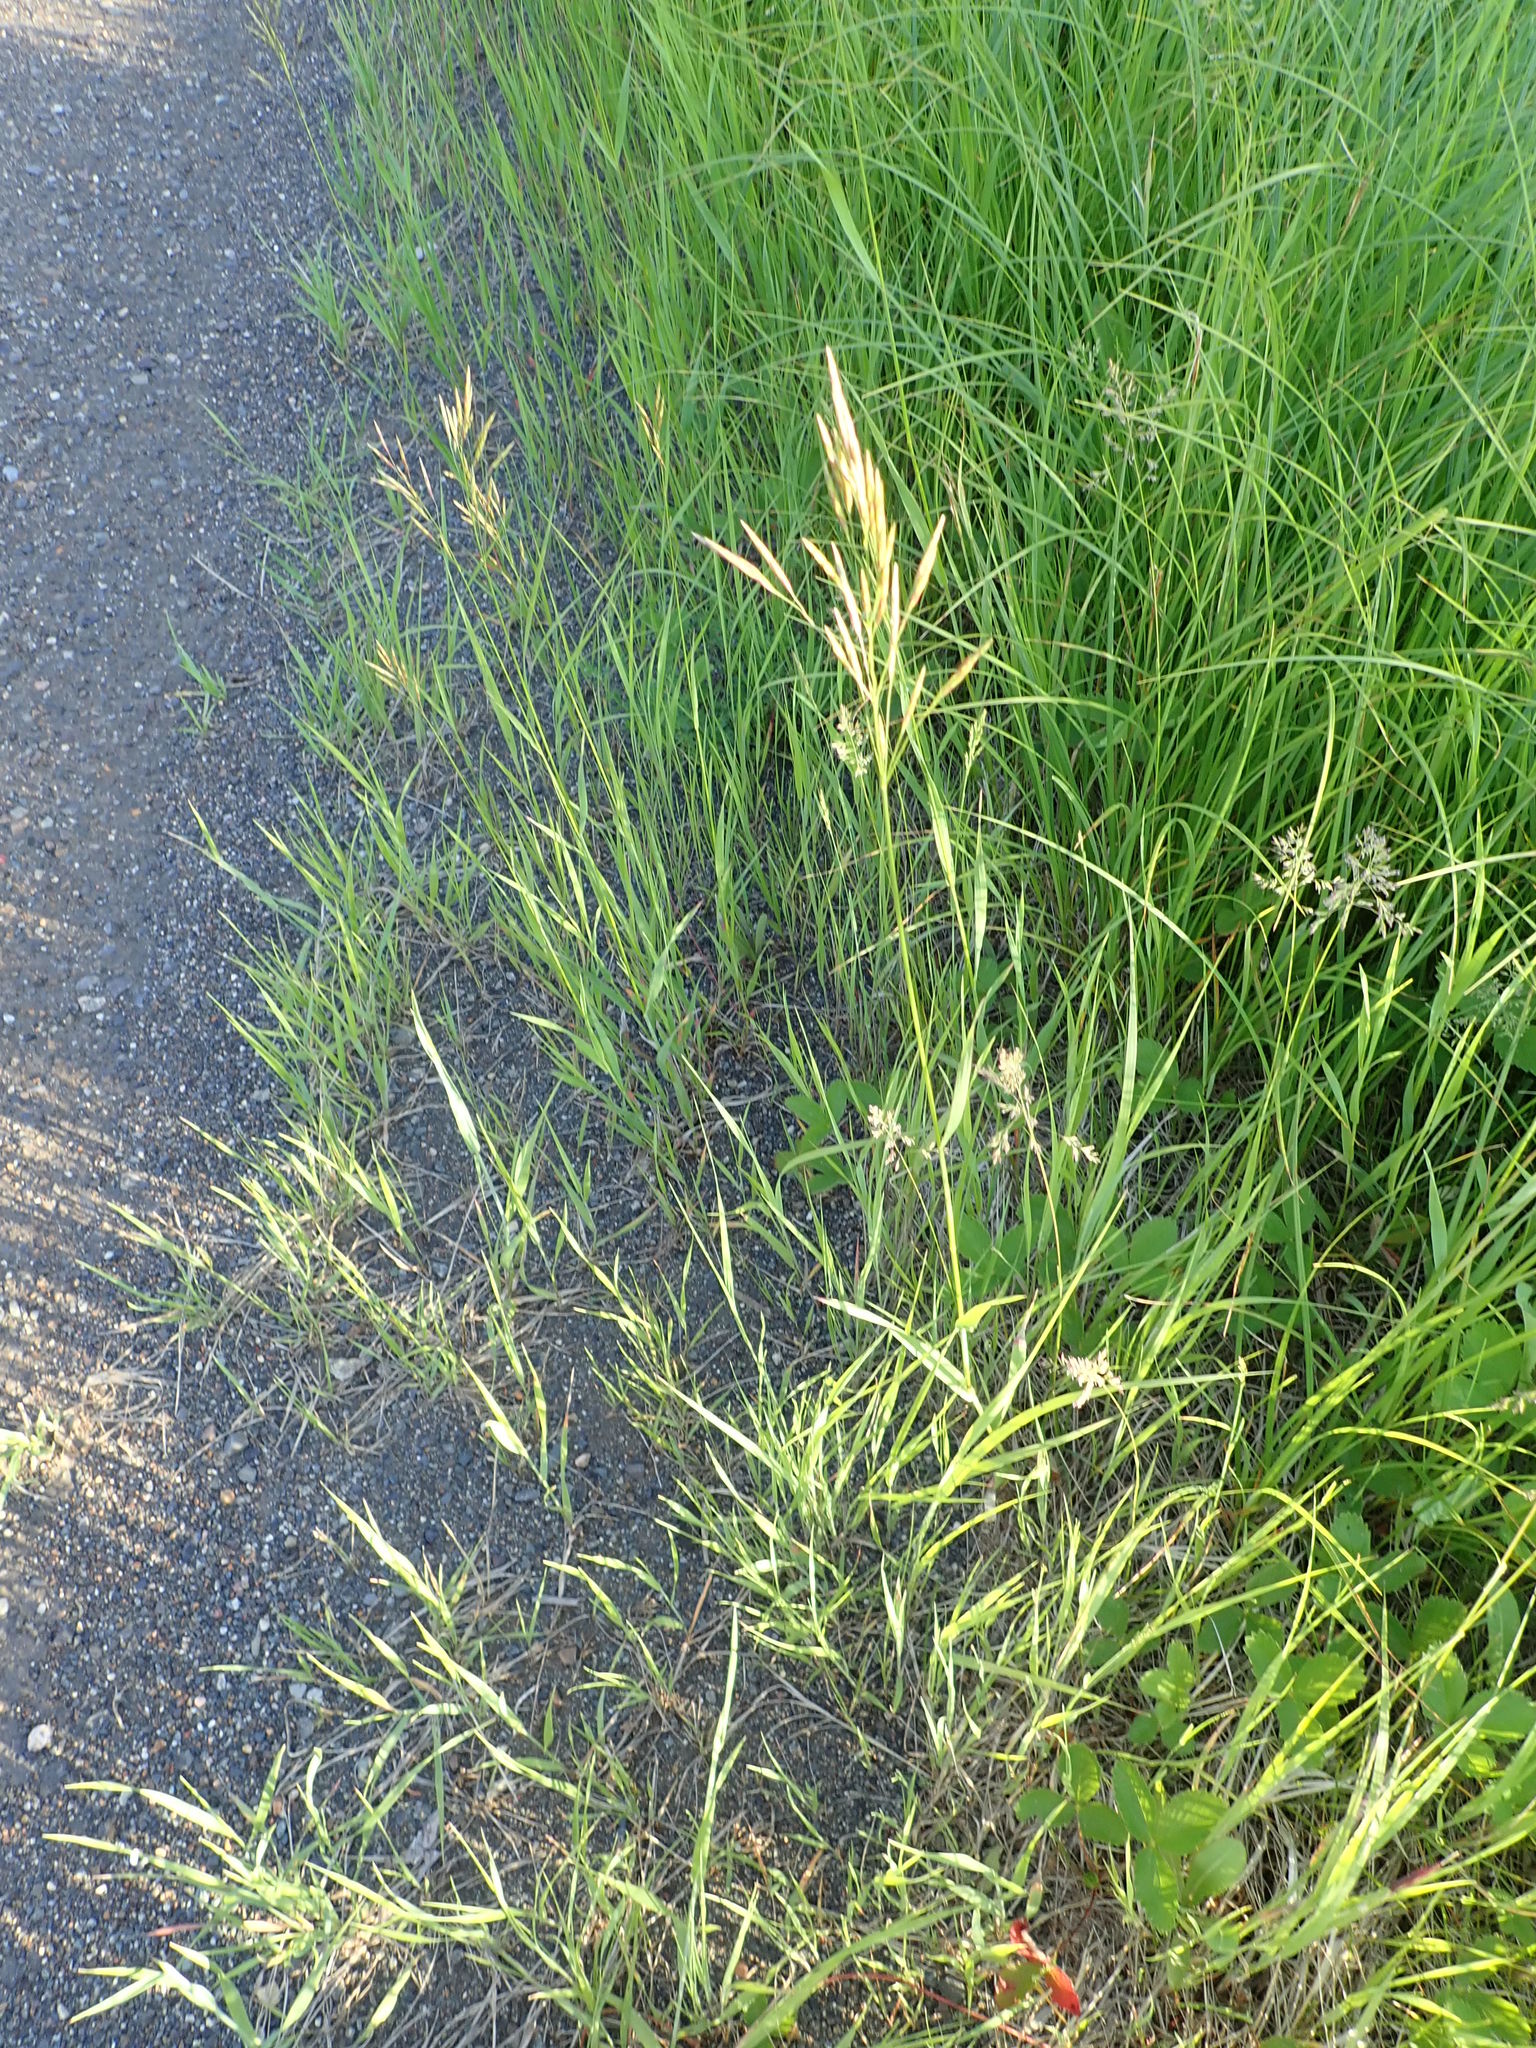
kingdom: Plantae
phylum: Tracheophyta
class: Liliopsida
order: Poales
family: Poaceae
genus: Bromus
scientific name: Bromus inermis
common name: Smooth brome
